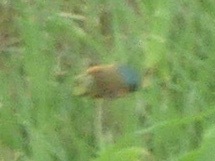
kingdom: Animalia
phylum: Arthropoda
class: Insecta
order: Hymenoptera
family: Apidae
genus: Xylocopa
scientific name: Xylocopa micans
